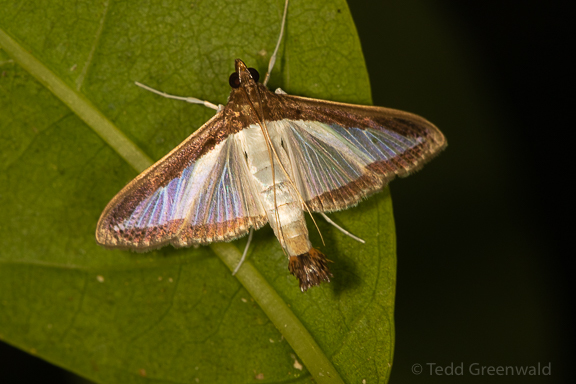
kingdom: Animalia
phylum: Arthropoda
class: Insecta
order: Lepidoptera
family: Crambidae
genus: Diaphania
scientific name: Diaphania hyalinata
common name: Melonworm
